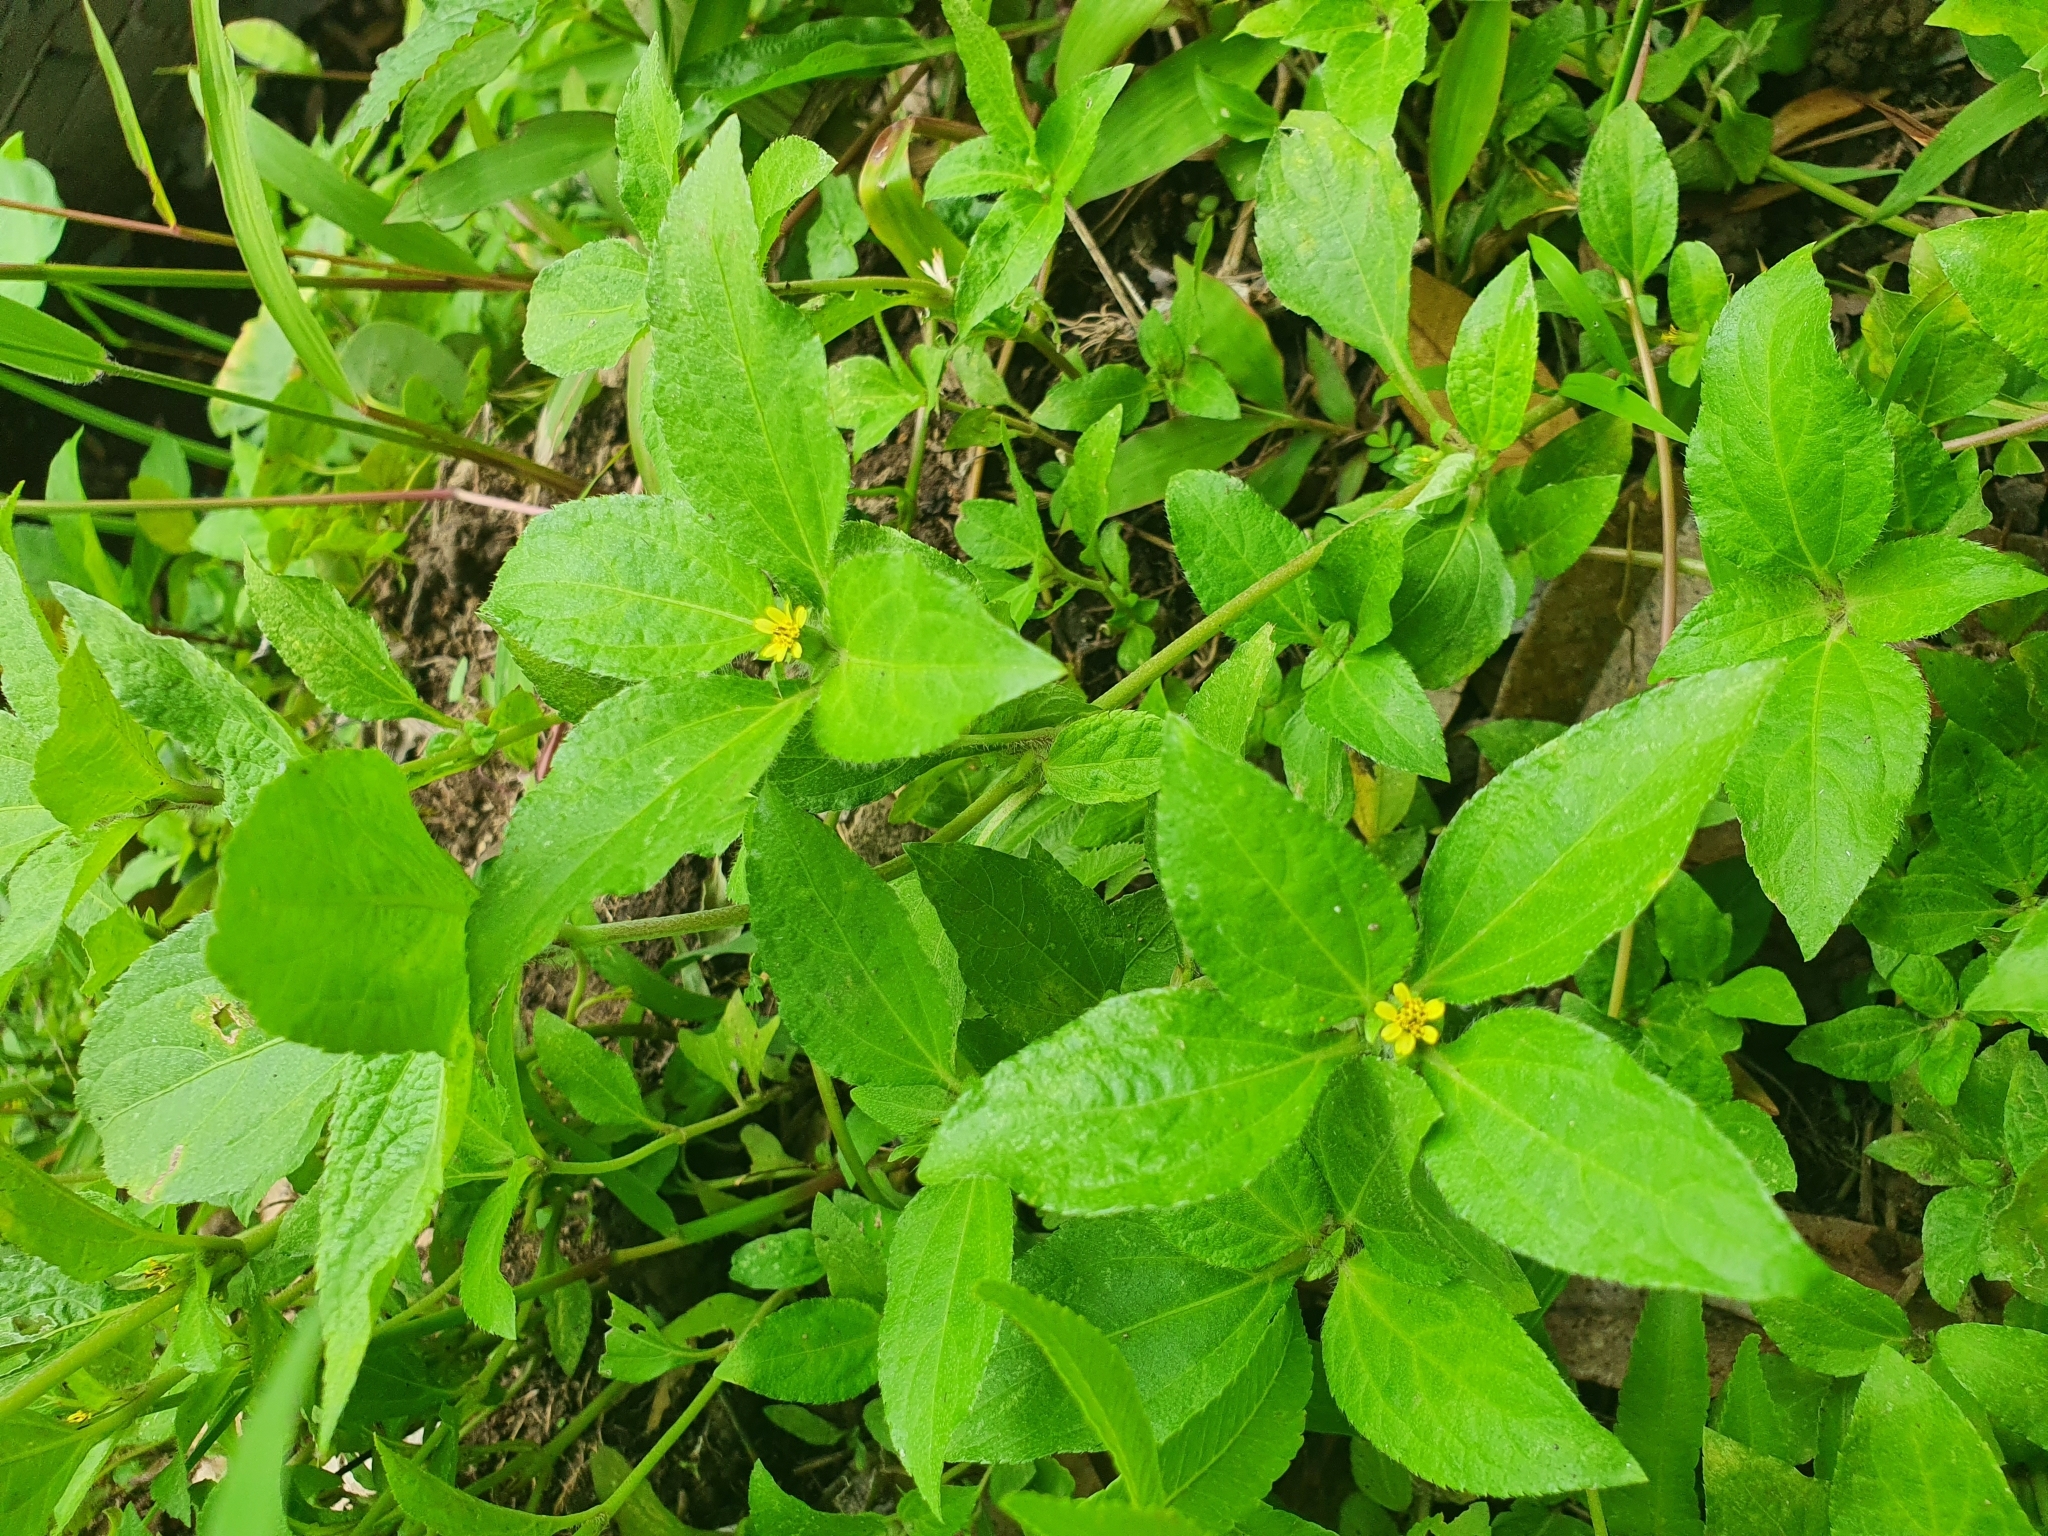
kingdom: Plantae
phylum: Tracheophyta
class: Magnoliopsida
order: Asterales
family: Asteraceae
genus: Synedrella
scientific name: Synedrella nodiflora
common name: Nodeweed
